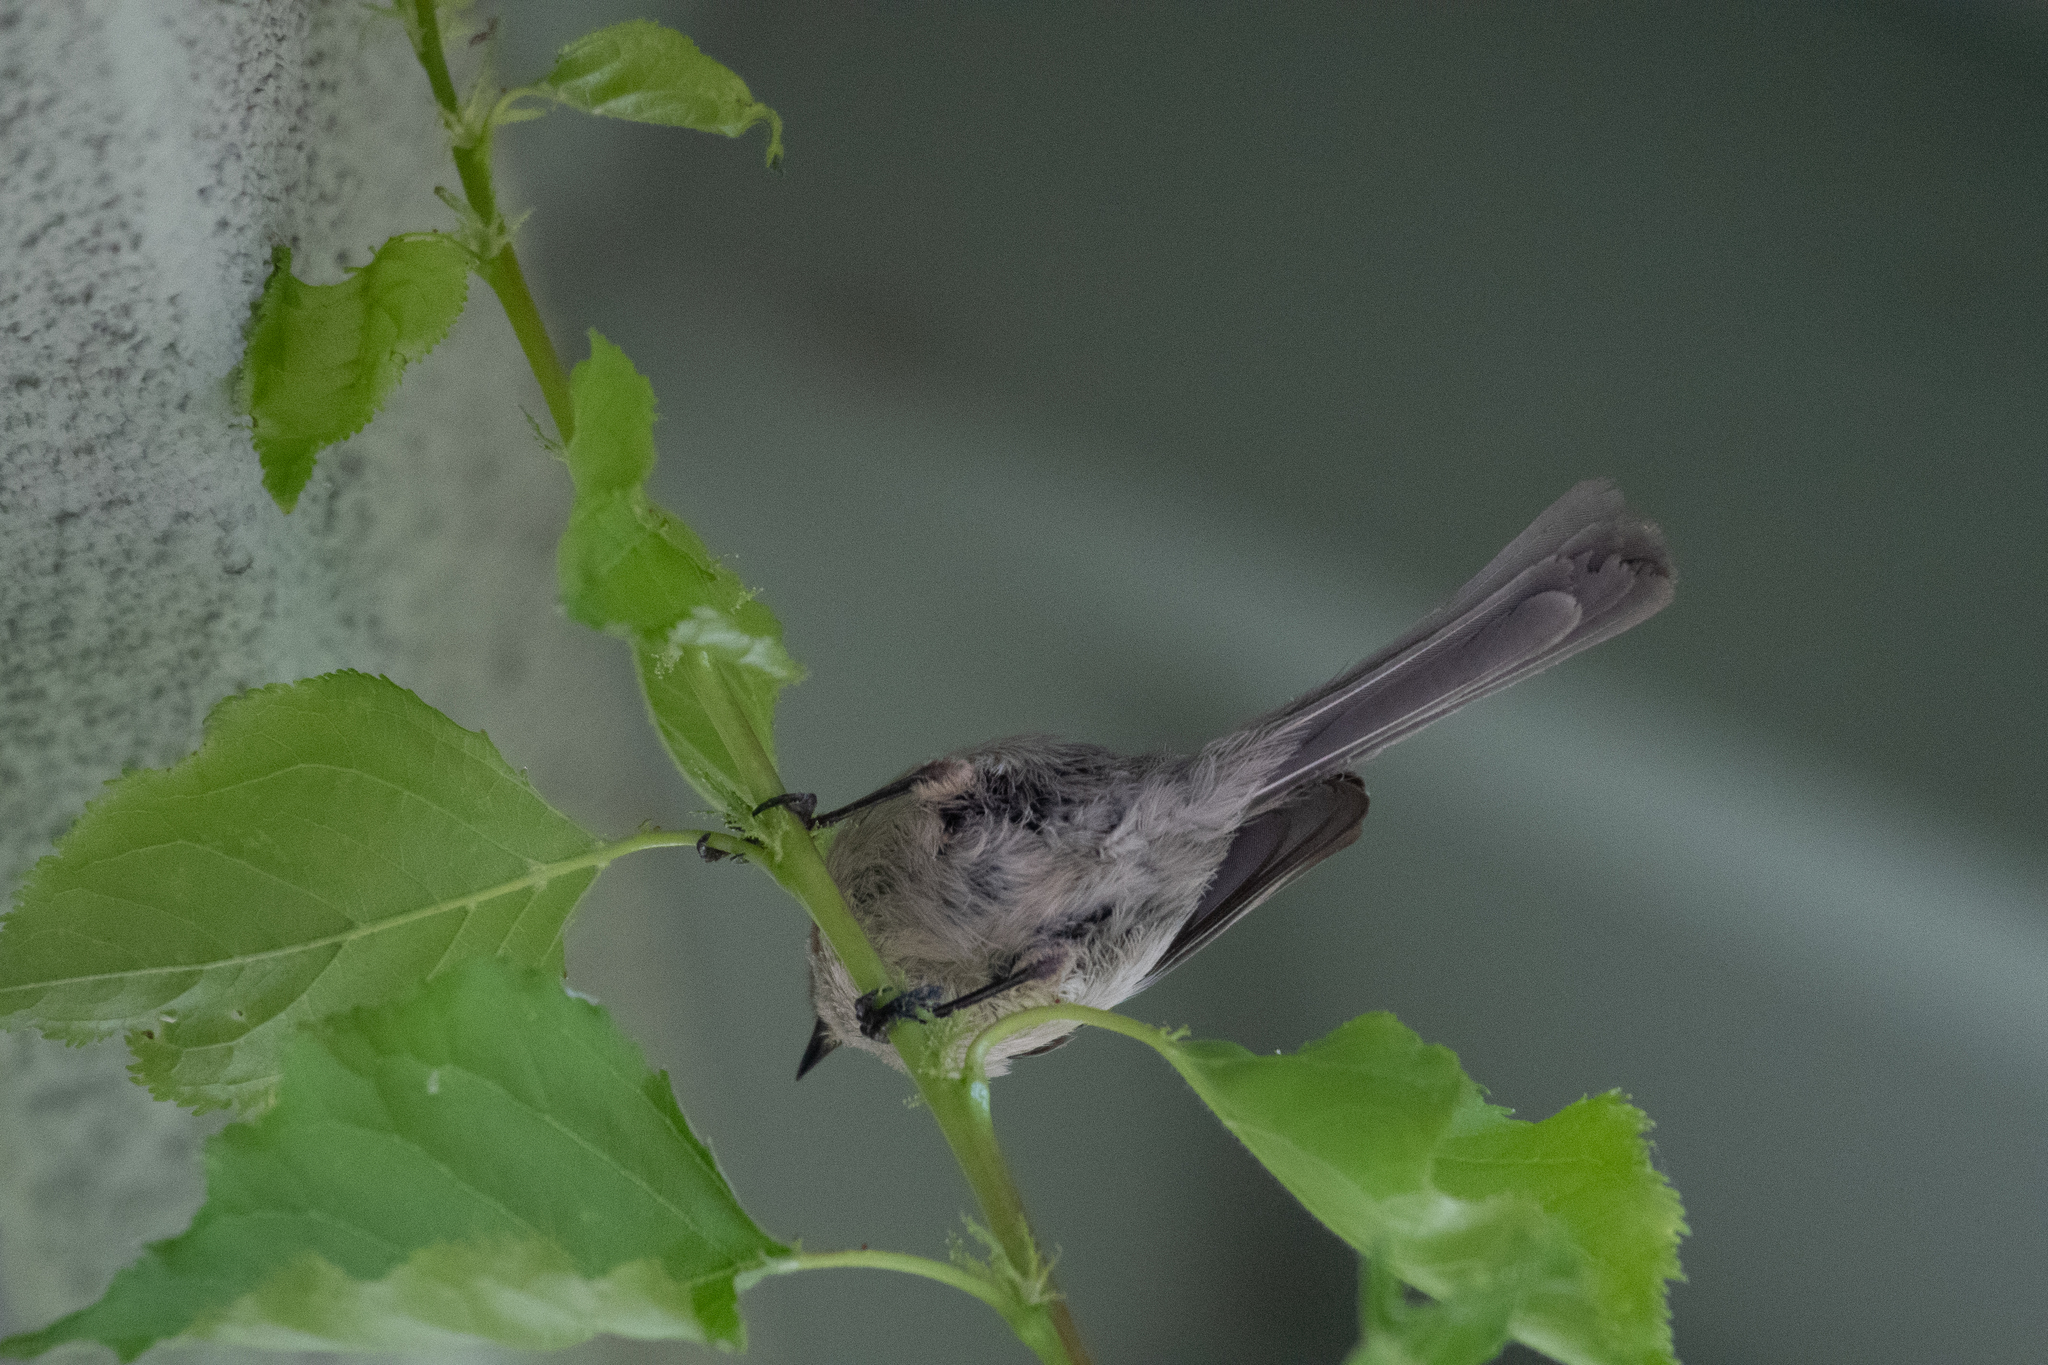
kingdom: Animalia
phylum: Chordata
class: Aves
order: Passeriformes
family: Aegithalidae
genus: Psaltriparus
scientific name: Psaltriparus minimus
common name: American bushtit
